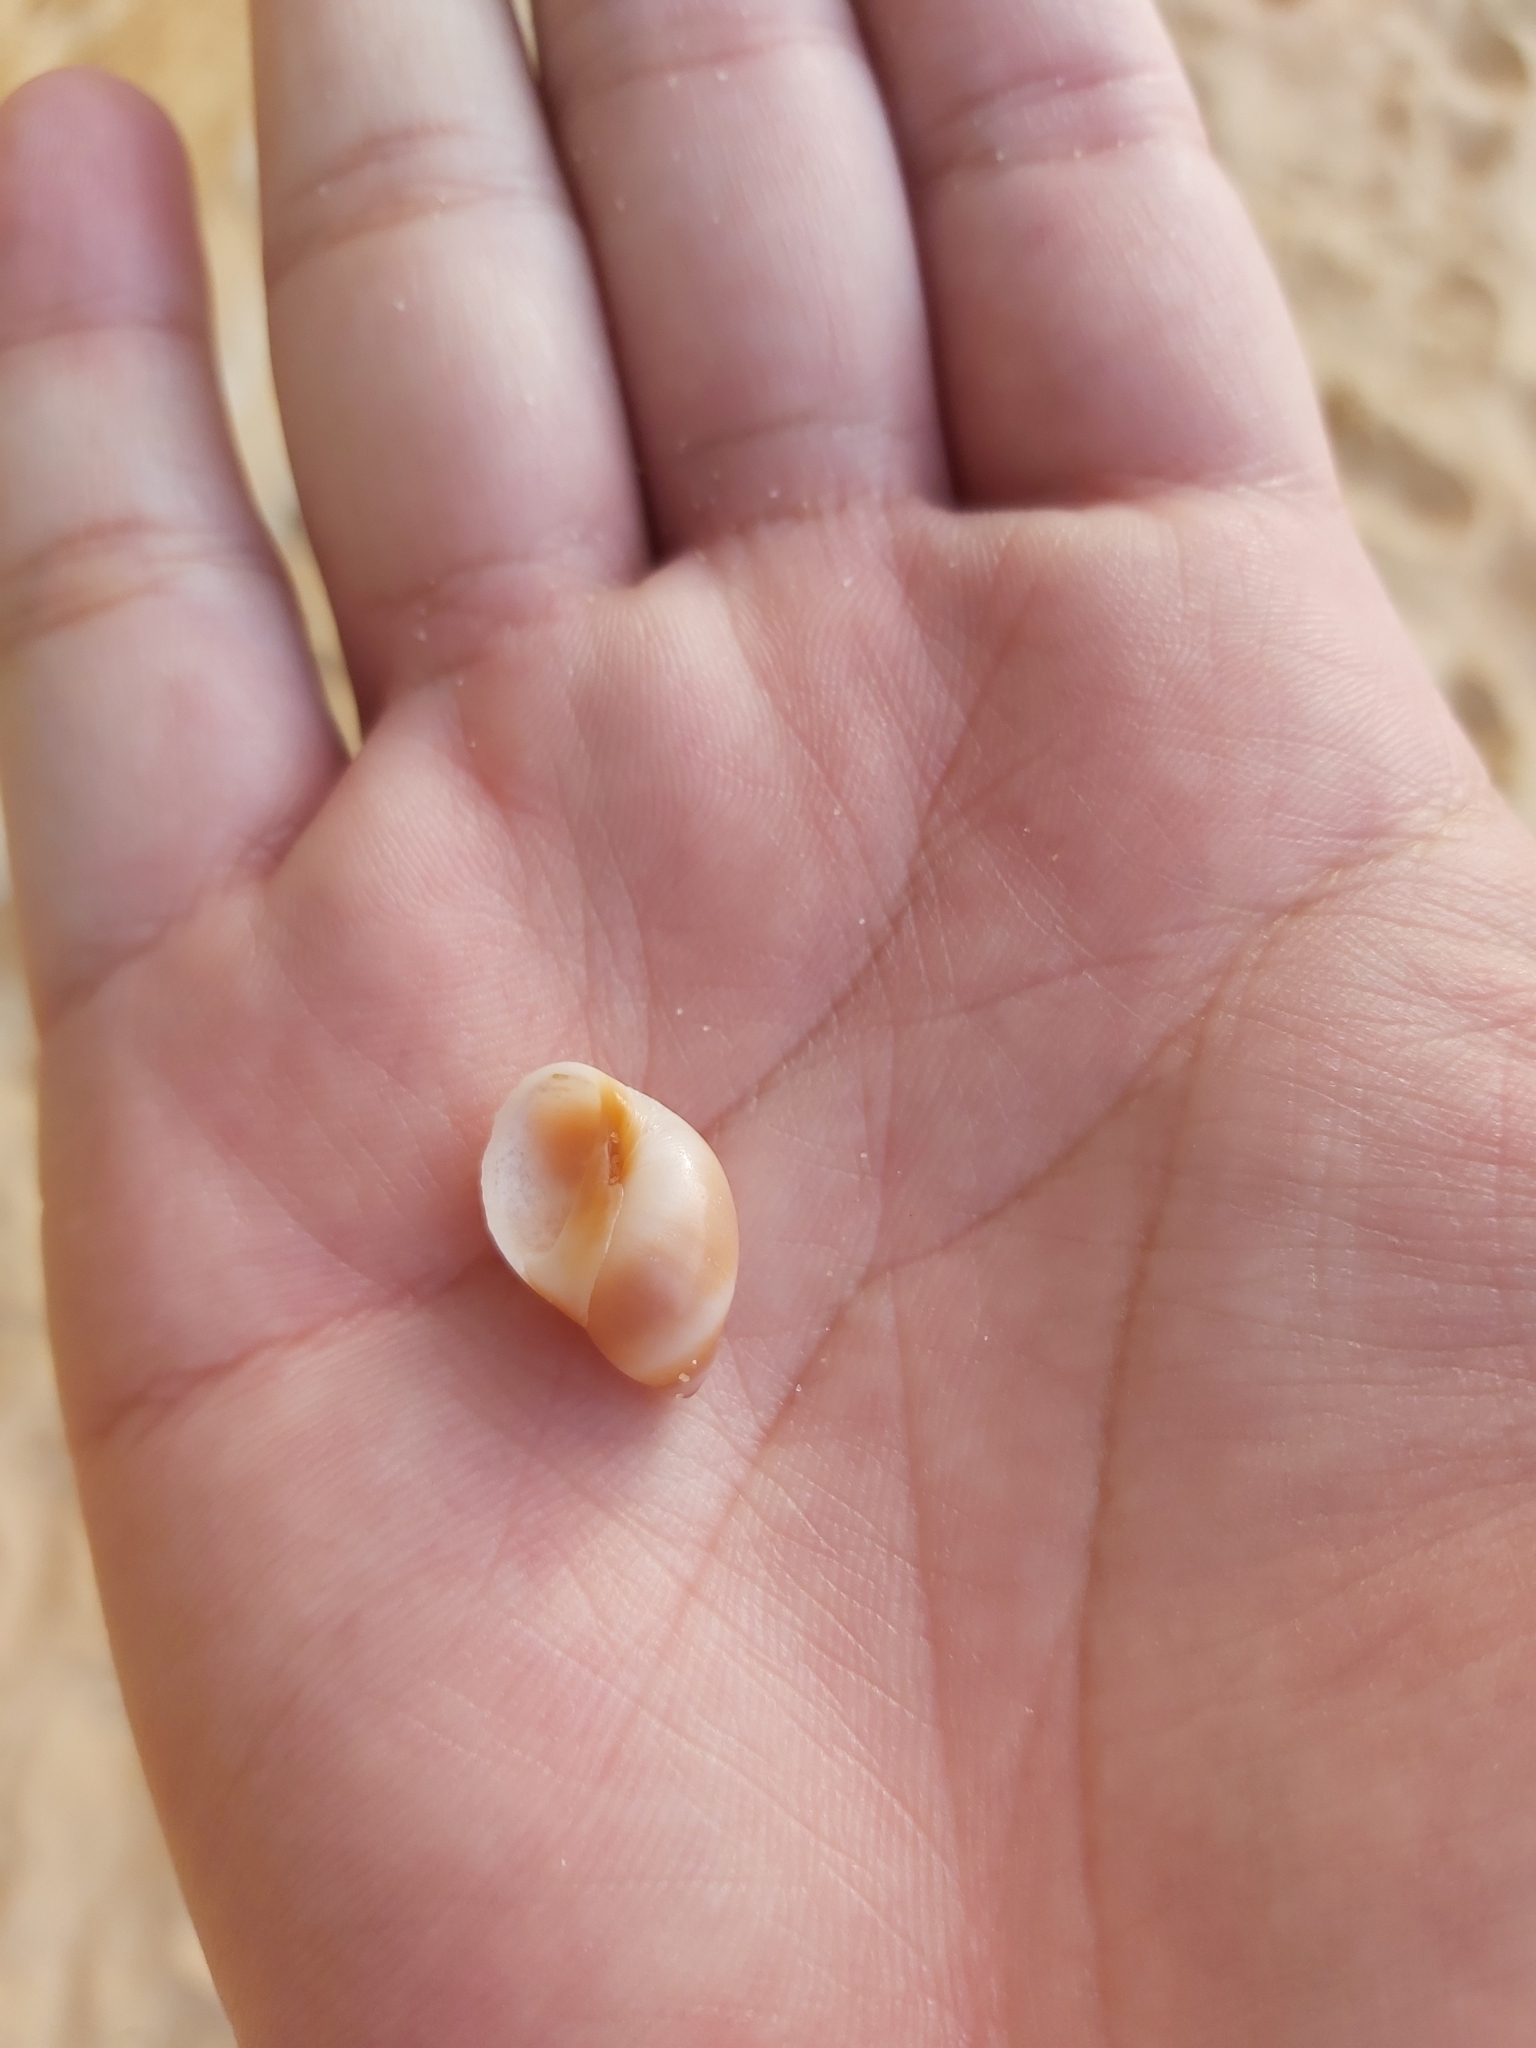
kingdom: Animalia
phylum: Mollusca
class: Gastropoda
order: Littorinimorpha
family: Naticidae
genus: Conuber
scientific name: Conuber conicum
